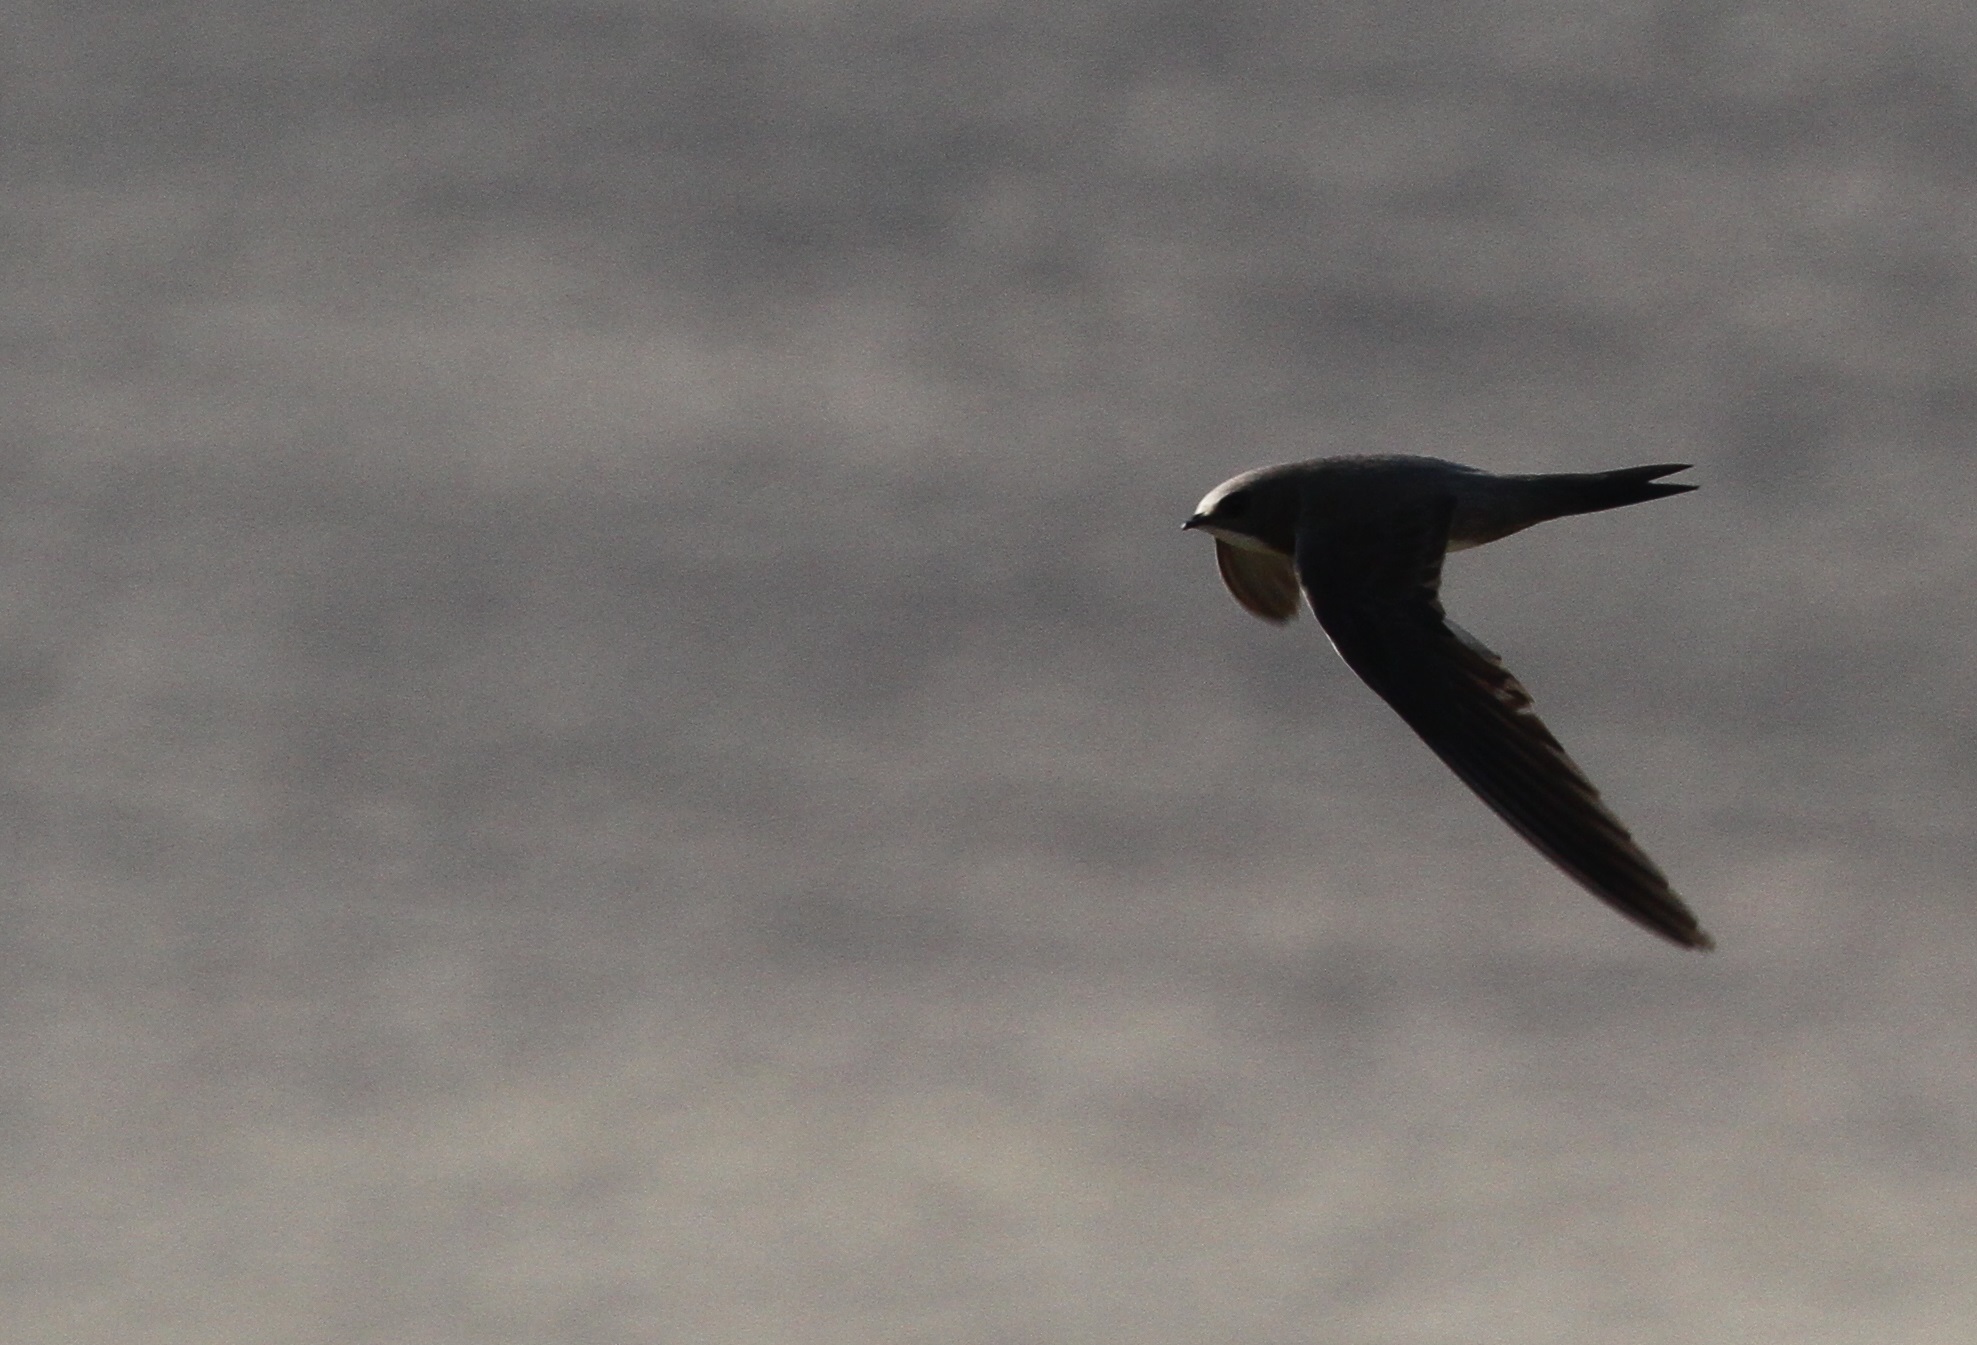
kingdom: Animalia
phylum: Chordata
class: Aves
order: Apodiformes
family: Apodidae
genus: Tachymarptis
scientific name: Tachymarptis melba
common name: Alpine swift
